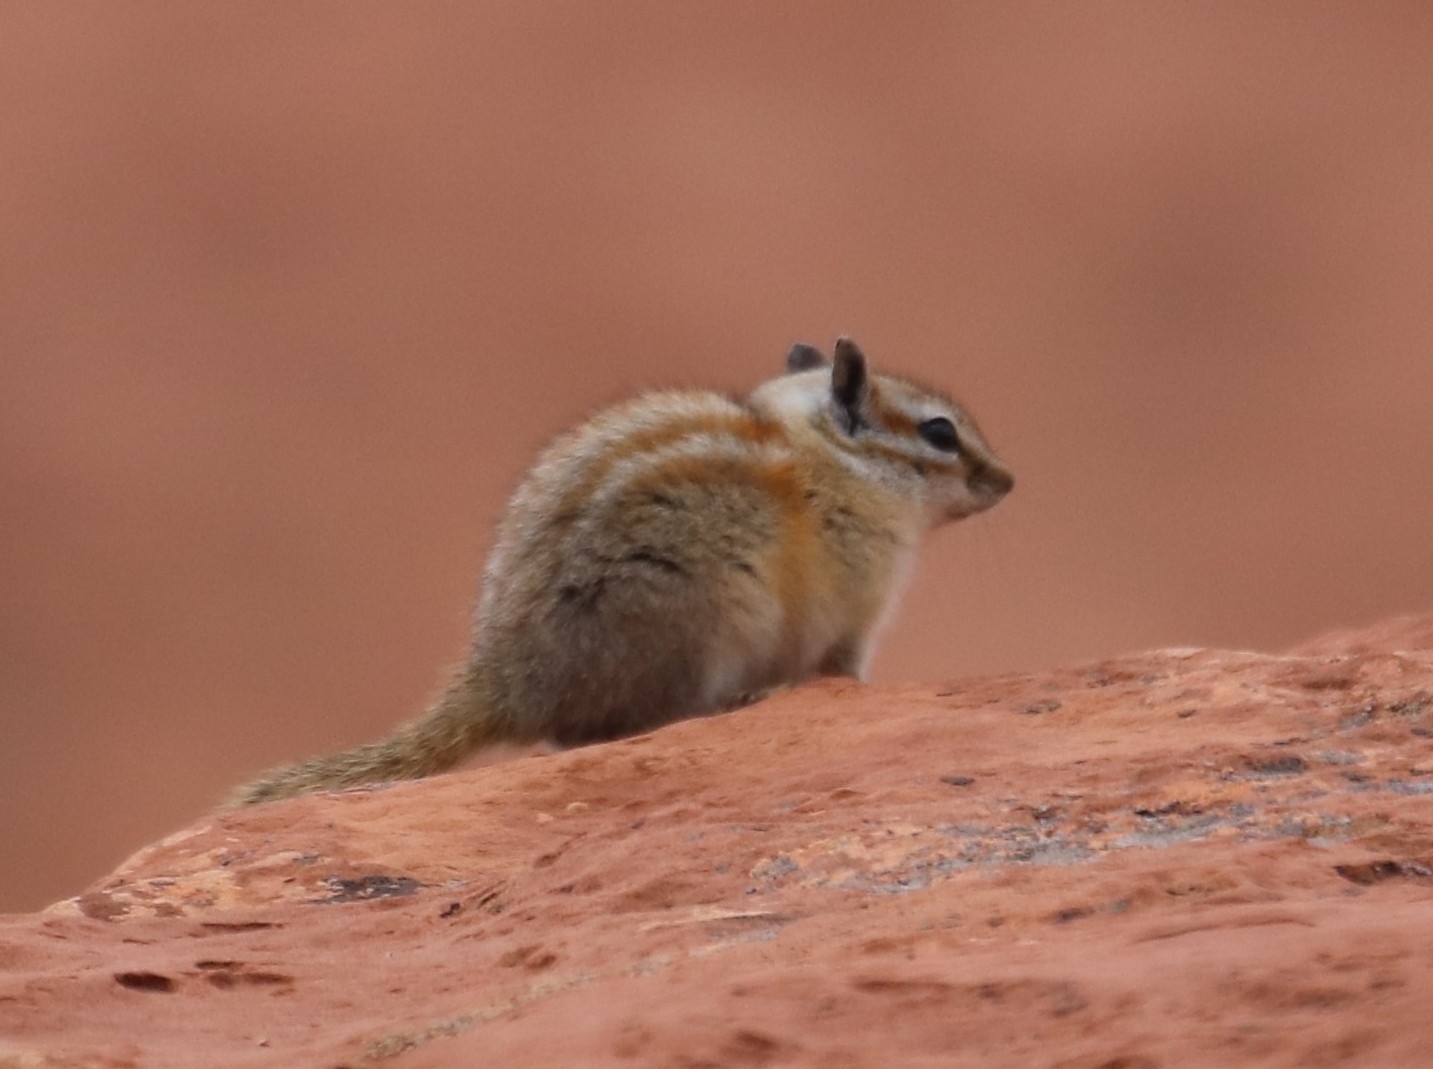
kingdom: Animalia
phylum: Chordata
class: Mammalia
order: Rodentia
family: Sciuridae
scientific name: Sciuridae
